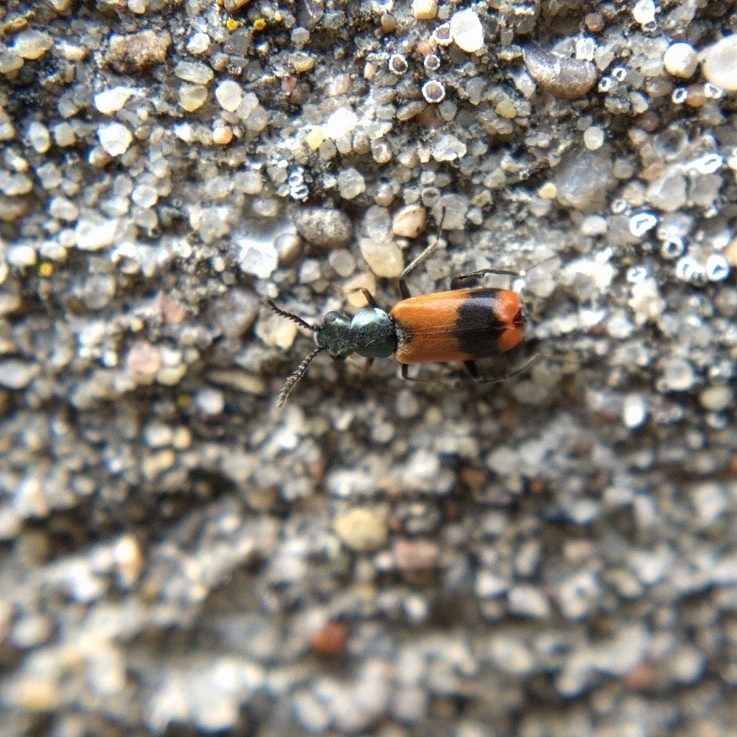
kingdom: Animalia
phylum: Arthropoda
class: Insecta
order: Coleoptera
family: Melyridae
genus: Anthocomus
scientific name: Anthocomus equestris
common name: Black-banded soft-winged flower beetle
